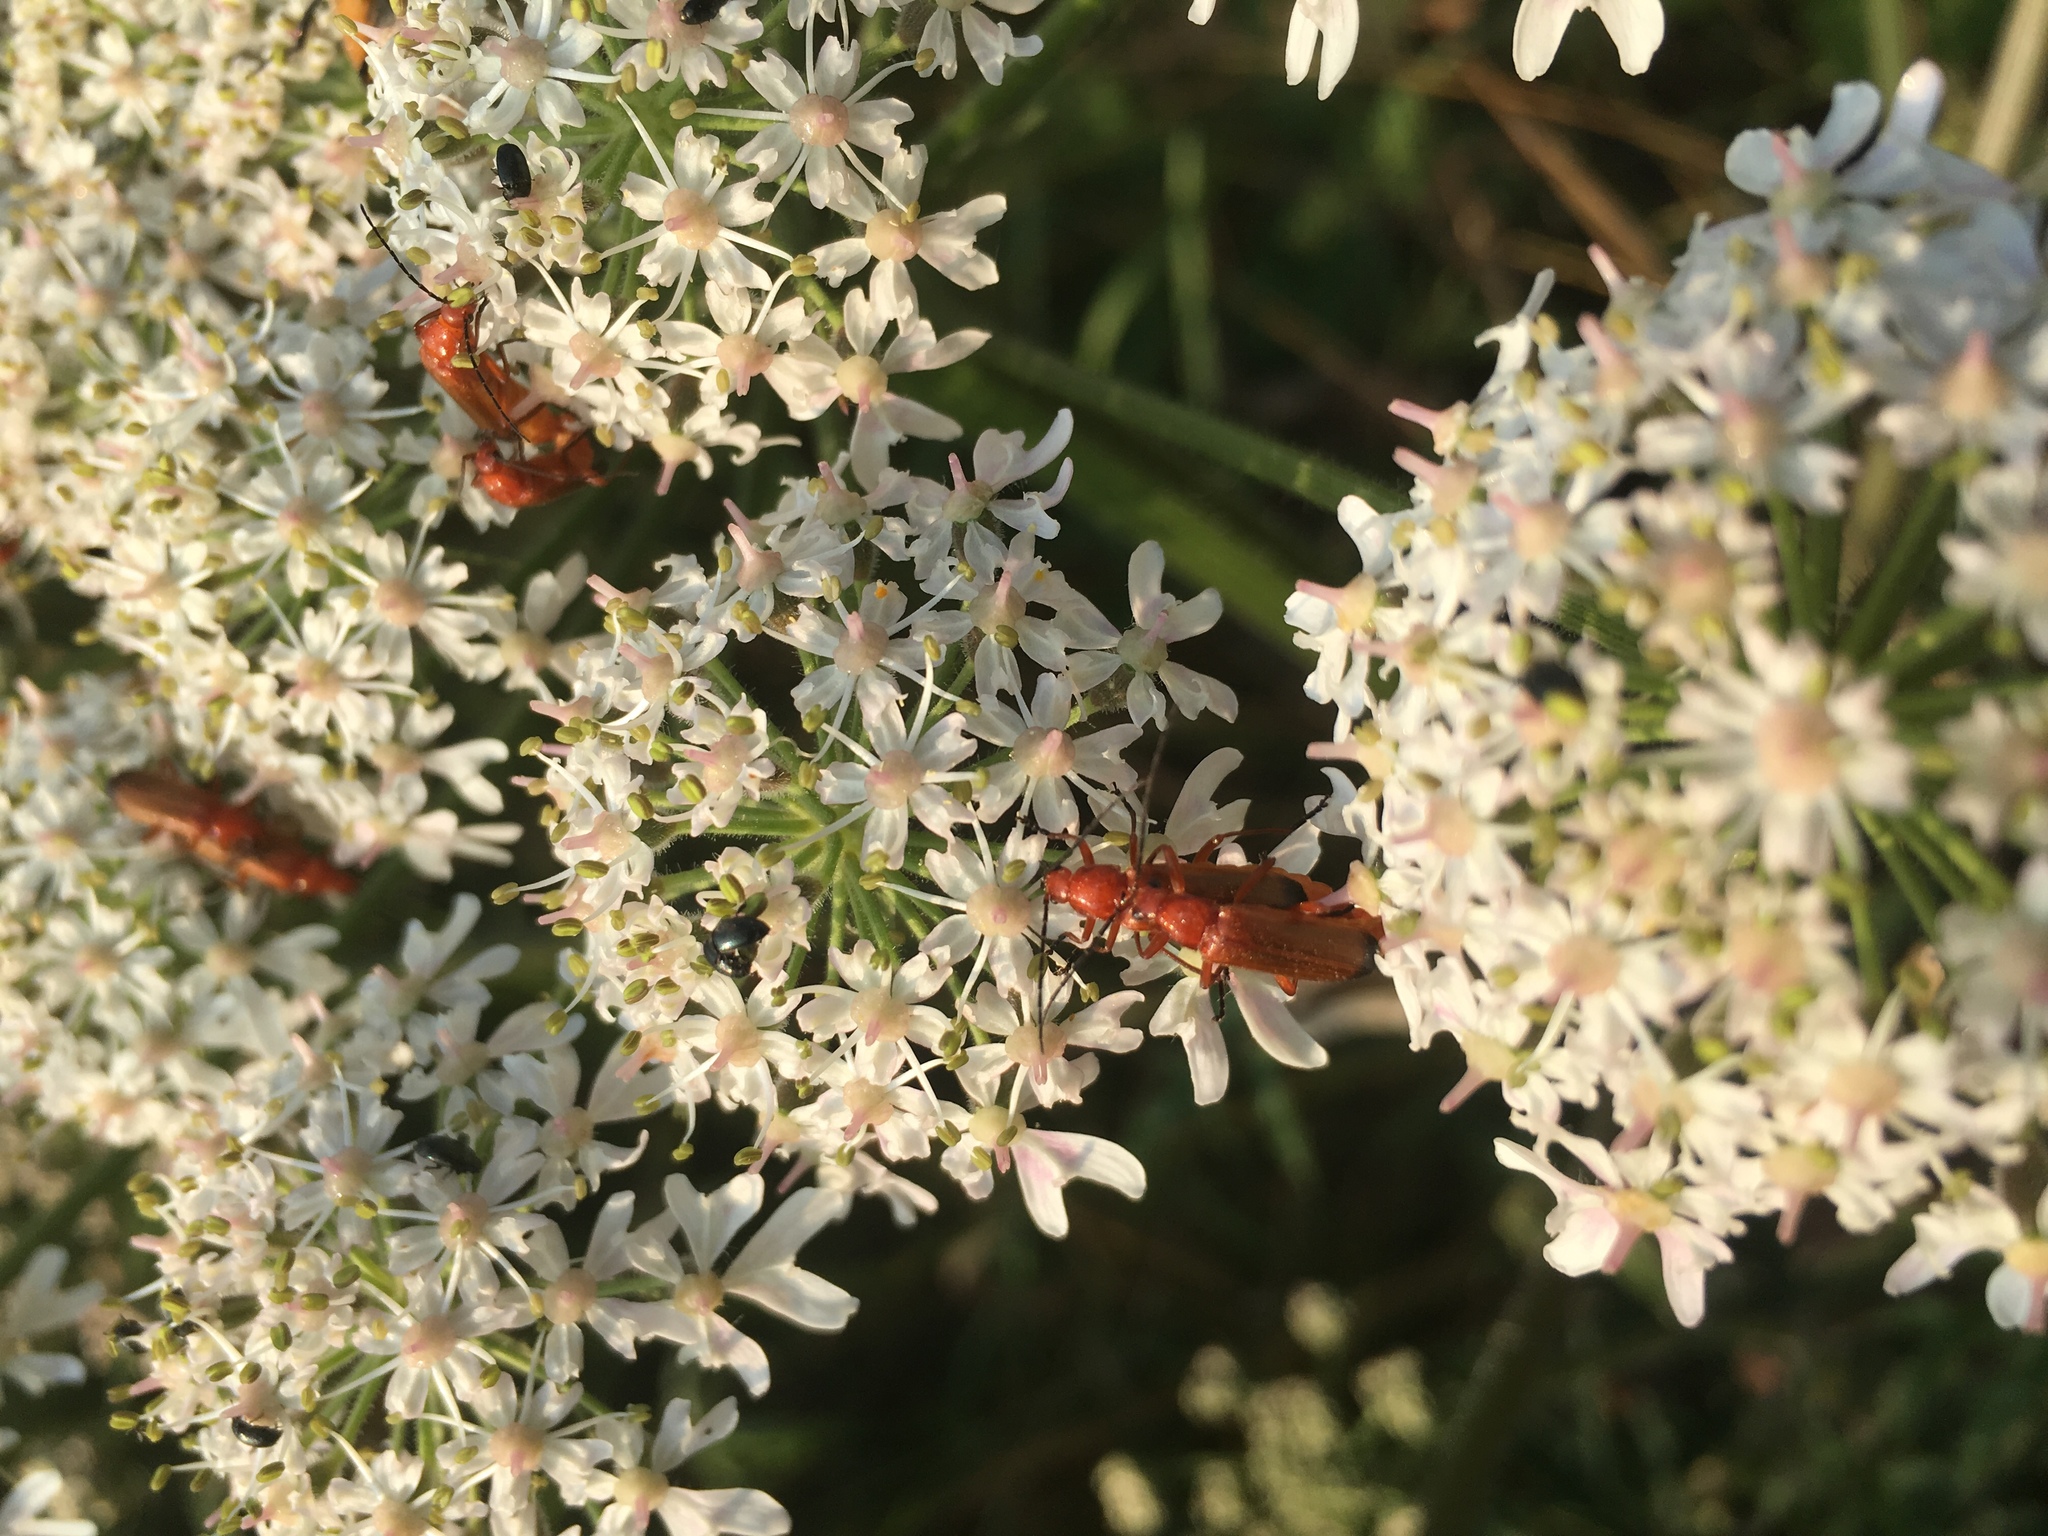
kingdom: Animalia
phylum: Arthropoda
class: Insecta
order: Coleoptera
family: Cantharidae
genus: Rhagonycha
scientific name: Rhagonycha fulva
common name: Common red soldier beetle
